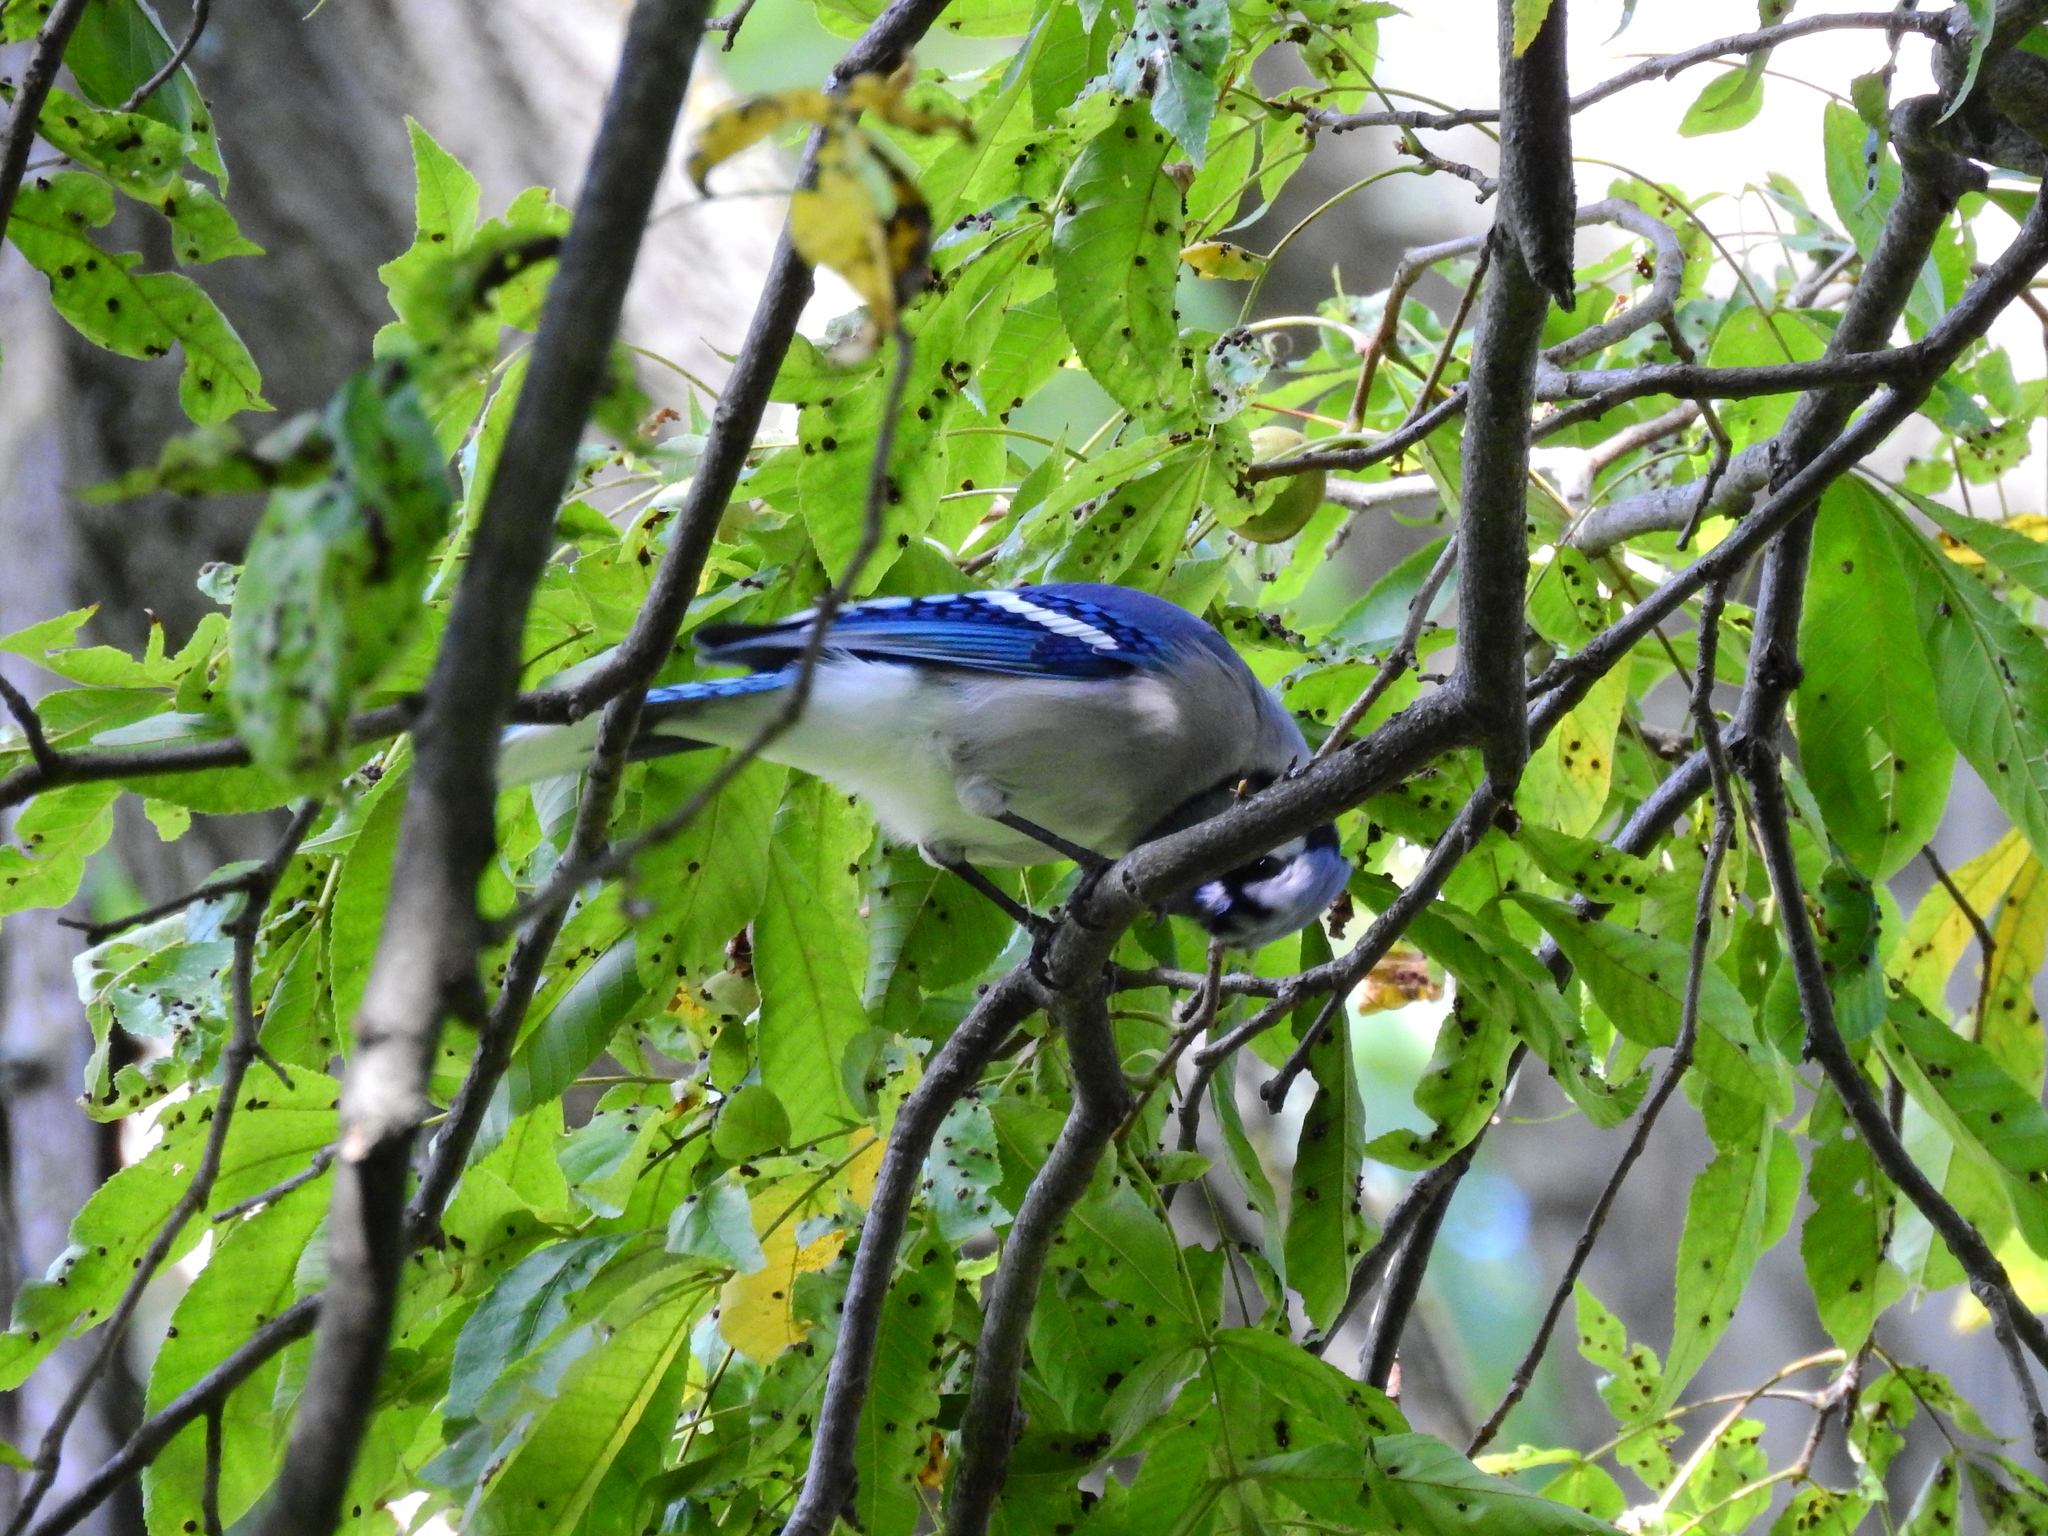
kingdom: Animalia
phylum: Chordata
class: Aves
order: Passeriformes
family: Corvidae
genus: Cyanocitta
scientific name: Cyanocitta cristata
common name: Blue jay
